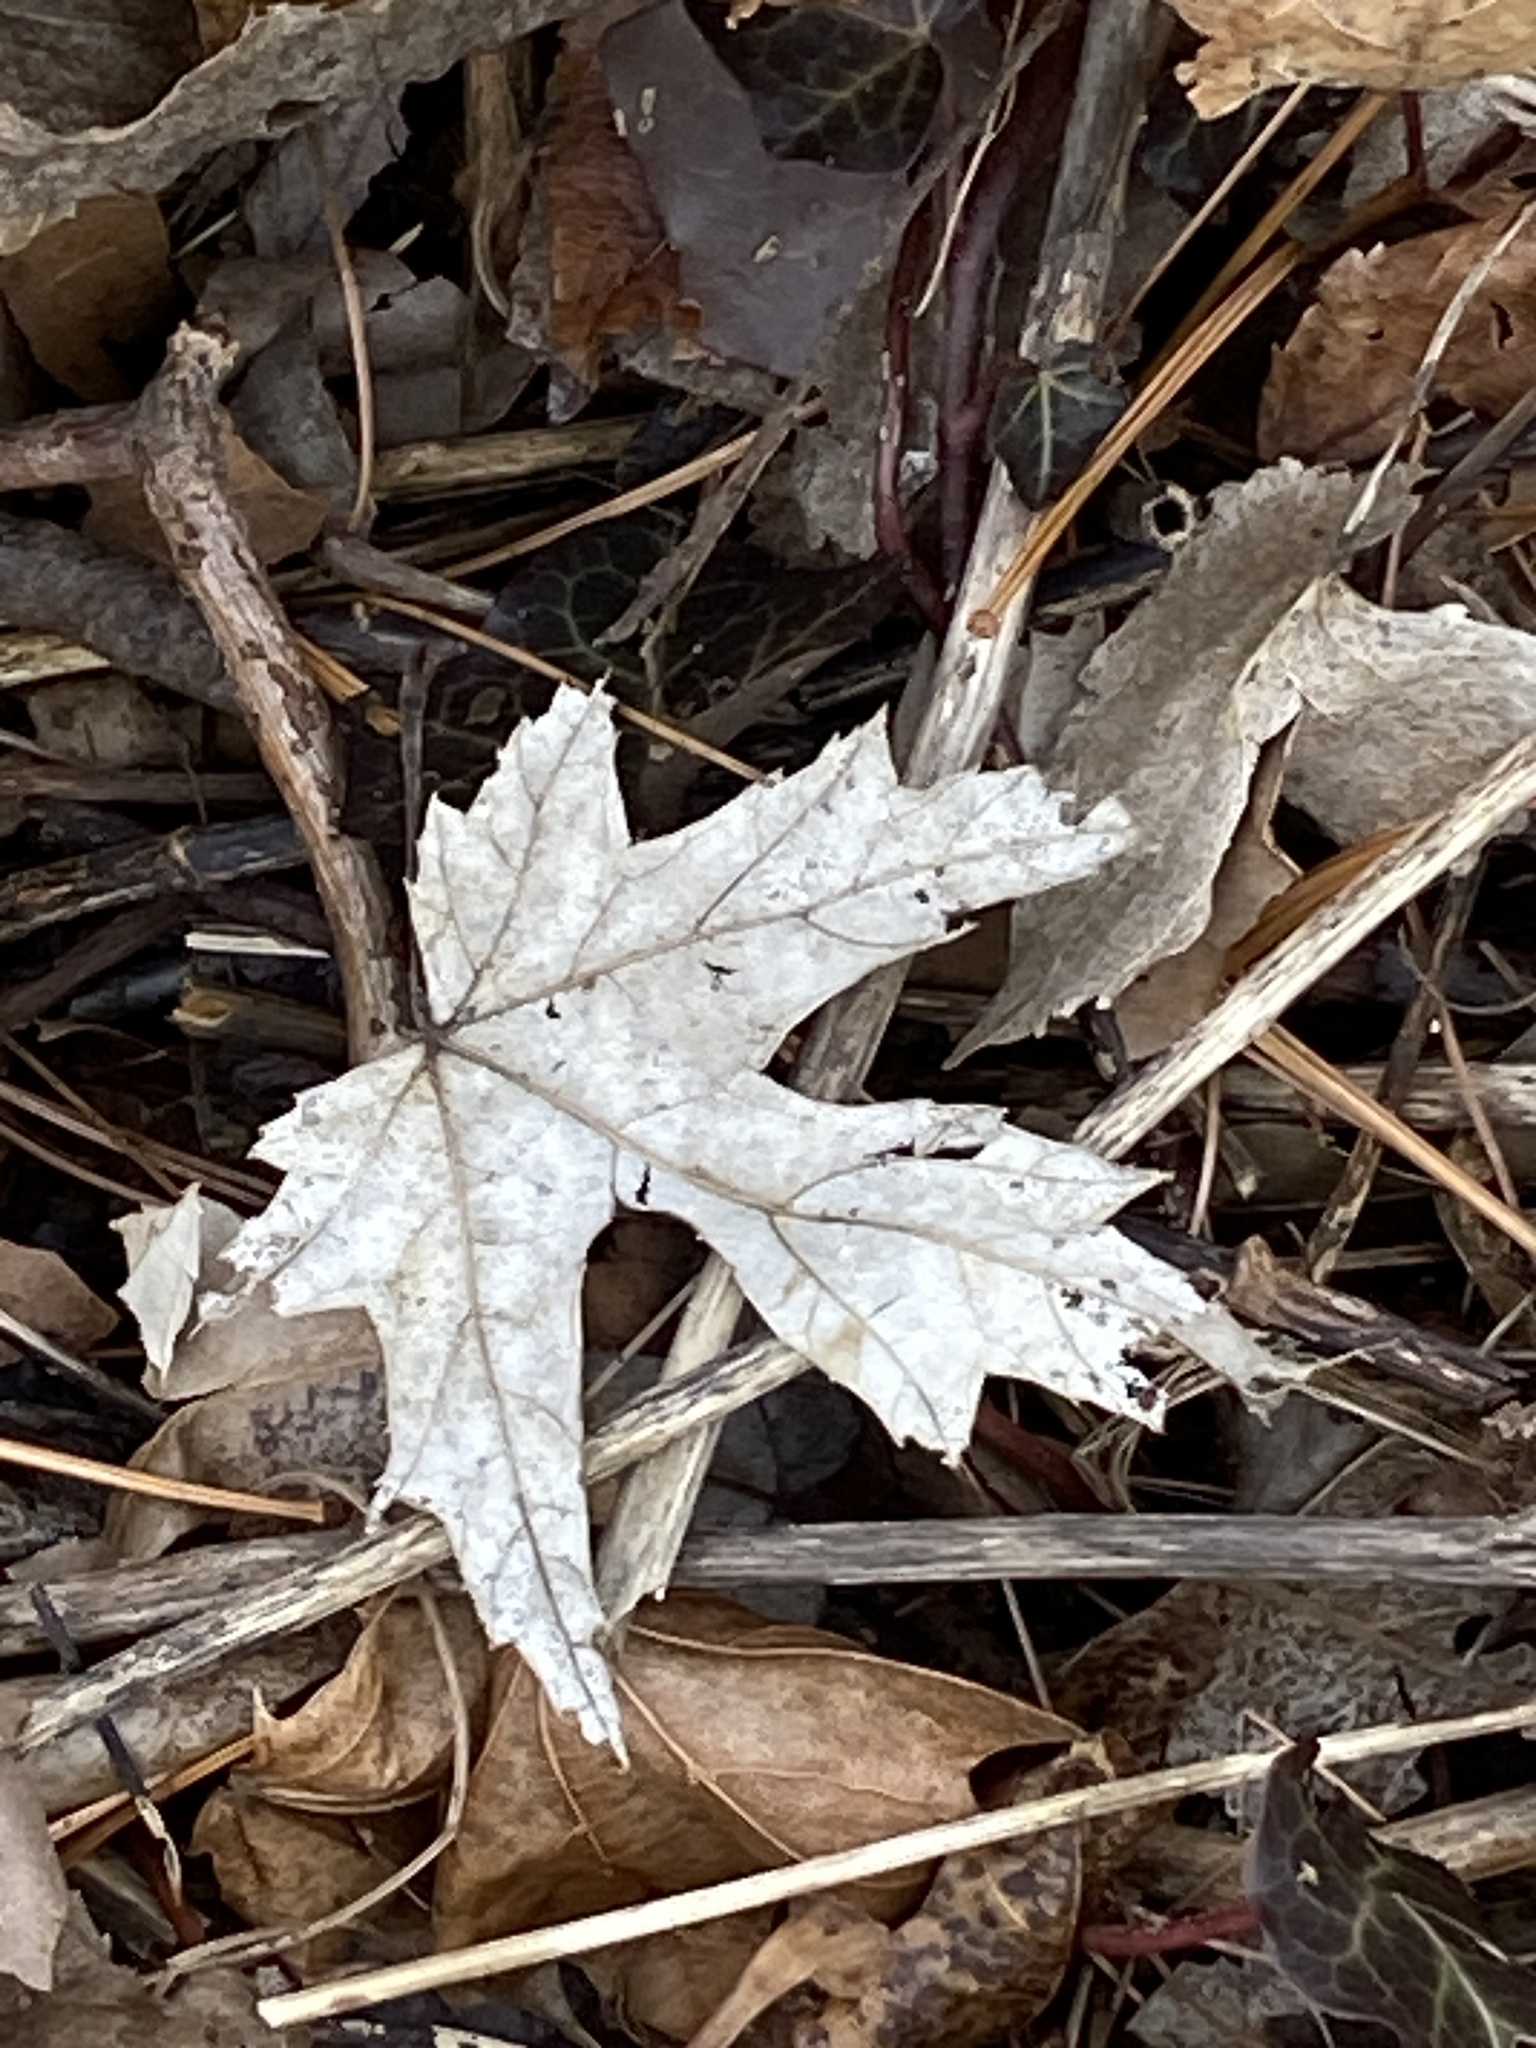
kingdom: Plantae
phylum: Tracheophyta
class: Magnoliopsida
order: Sapindales
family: Sapindaceae
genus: Acer
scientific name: Acer saccharinum
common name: Silver maple
